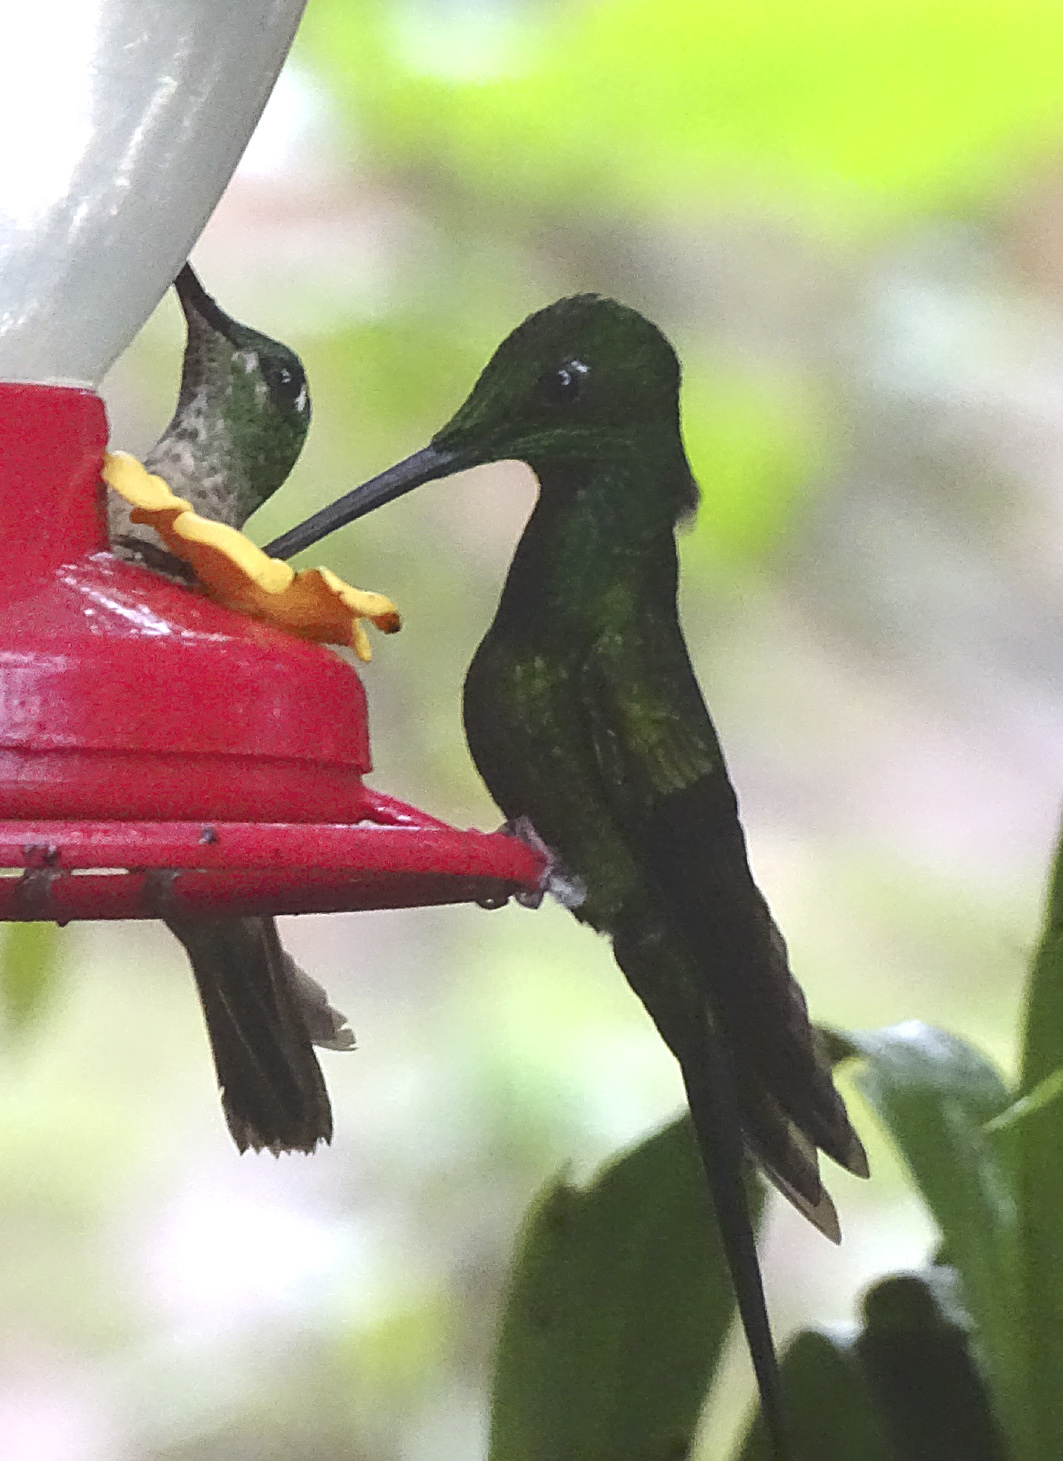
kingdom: Animalia
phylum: Chordata
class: Aves
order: Apodiformes
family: Trochilidae
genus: Heliodoxa
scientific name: Heliodoxa imperatrix
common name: Empress brilliant
